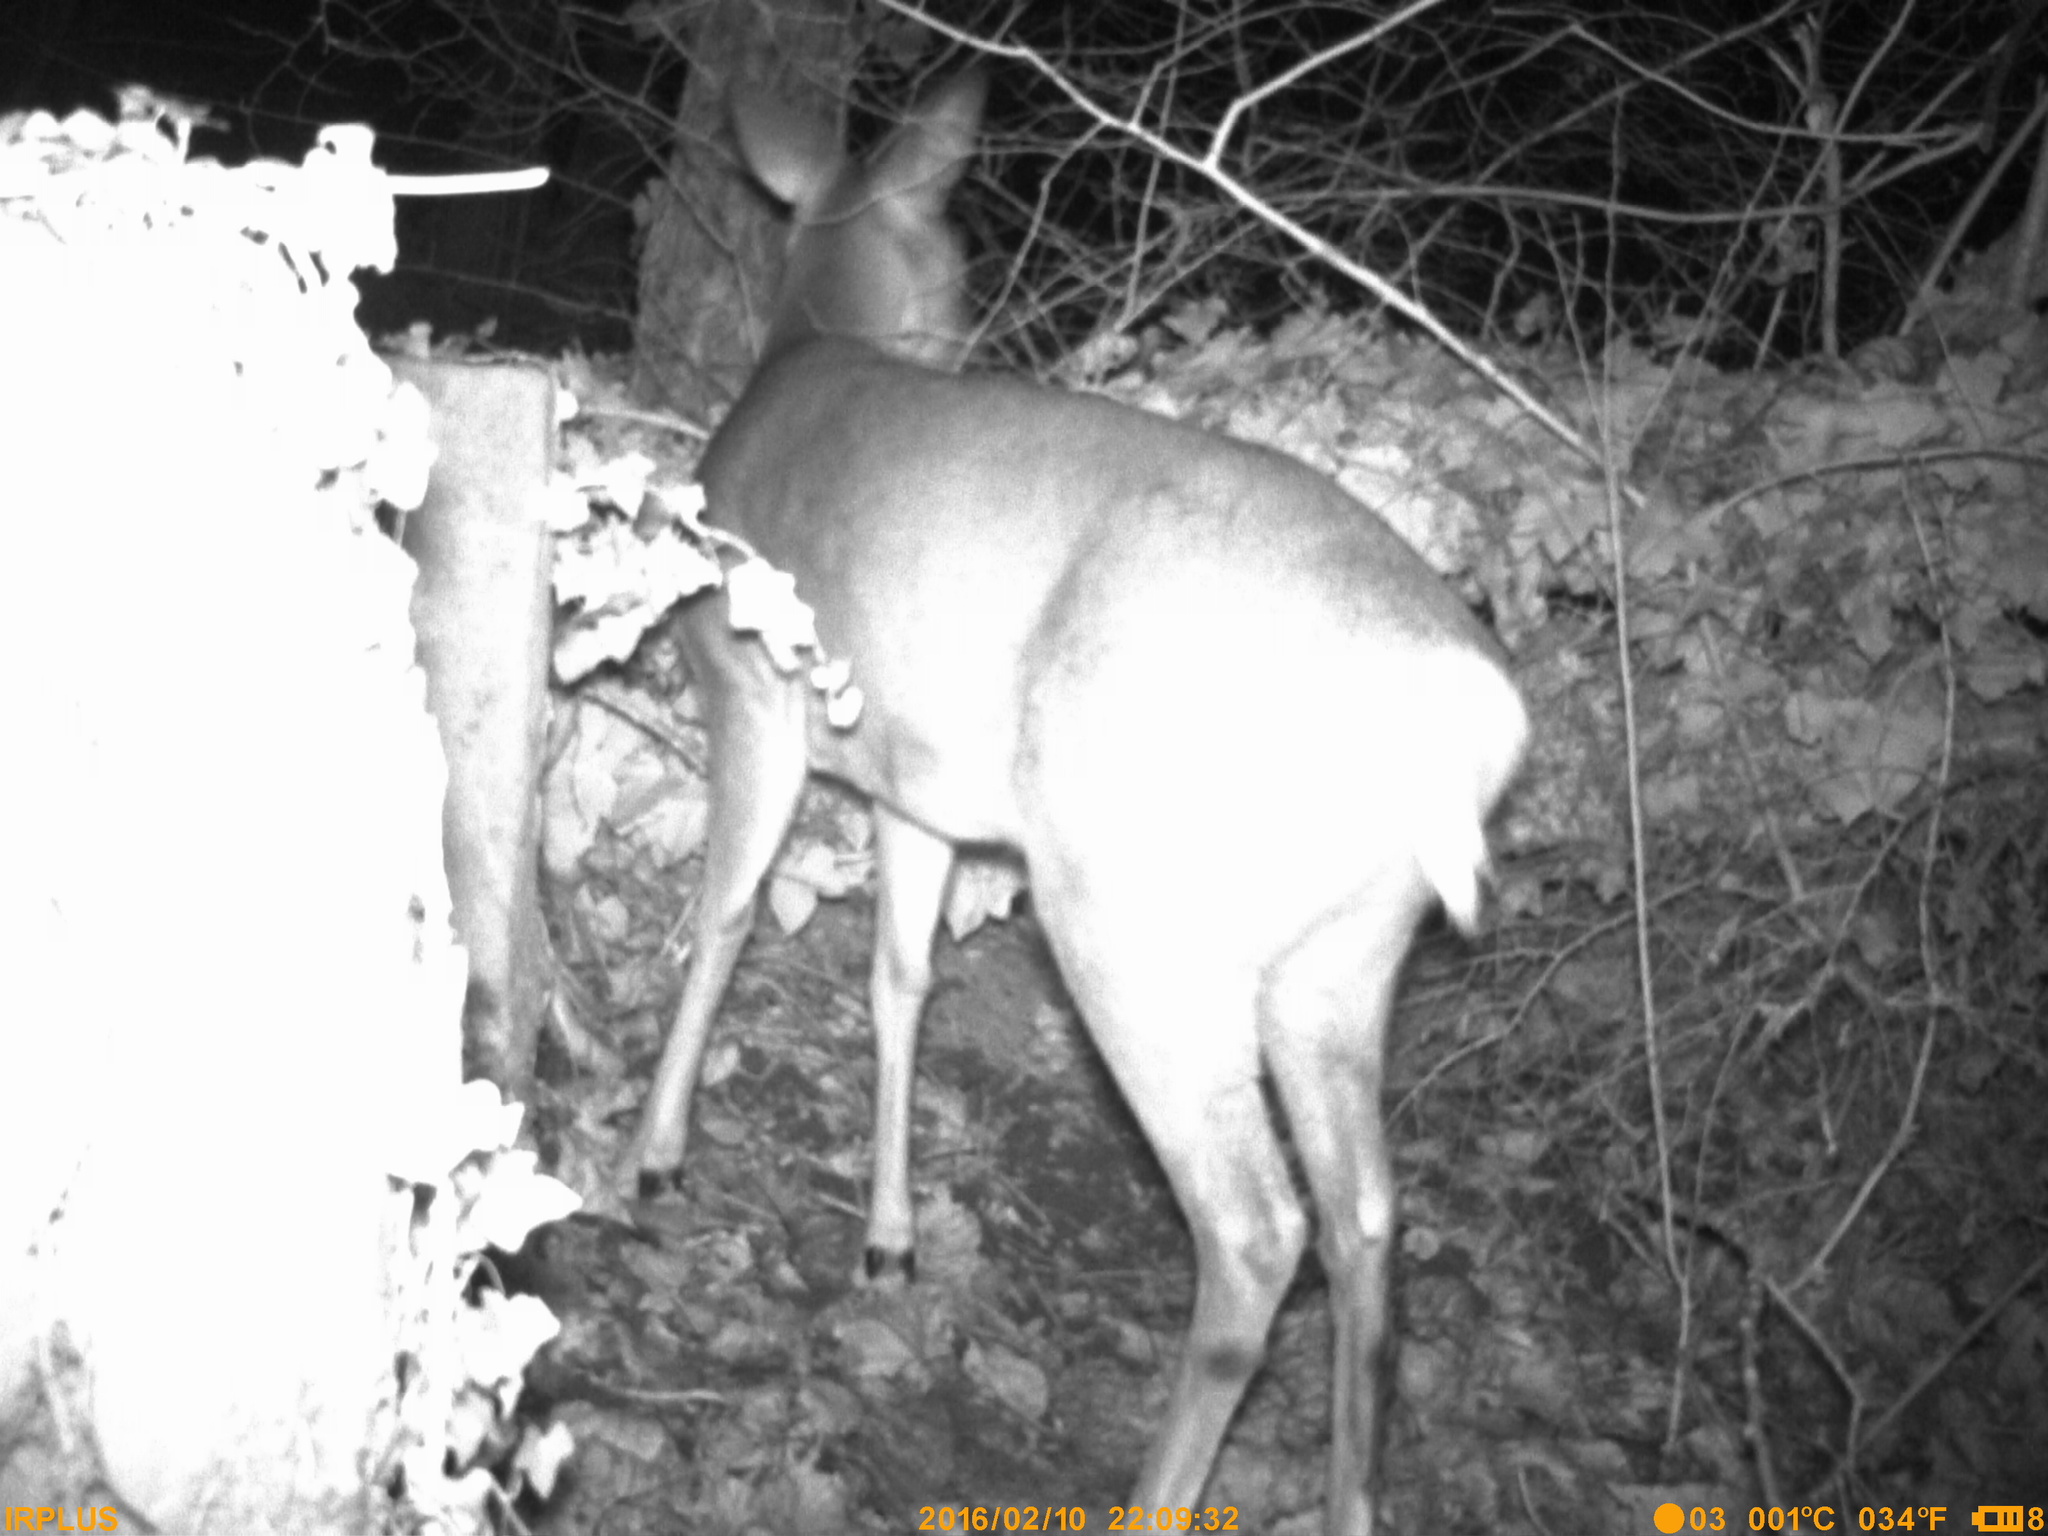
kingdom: Animalia
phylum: Chordata
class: Mammalia
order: Artiodactyla
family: Cervidae
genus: Capreolus
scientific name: Capreolus capreolus
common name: Western roe deer
